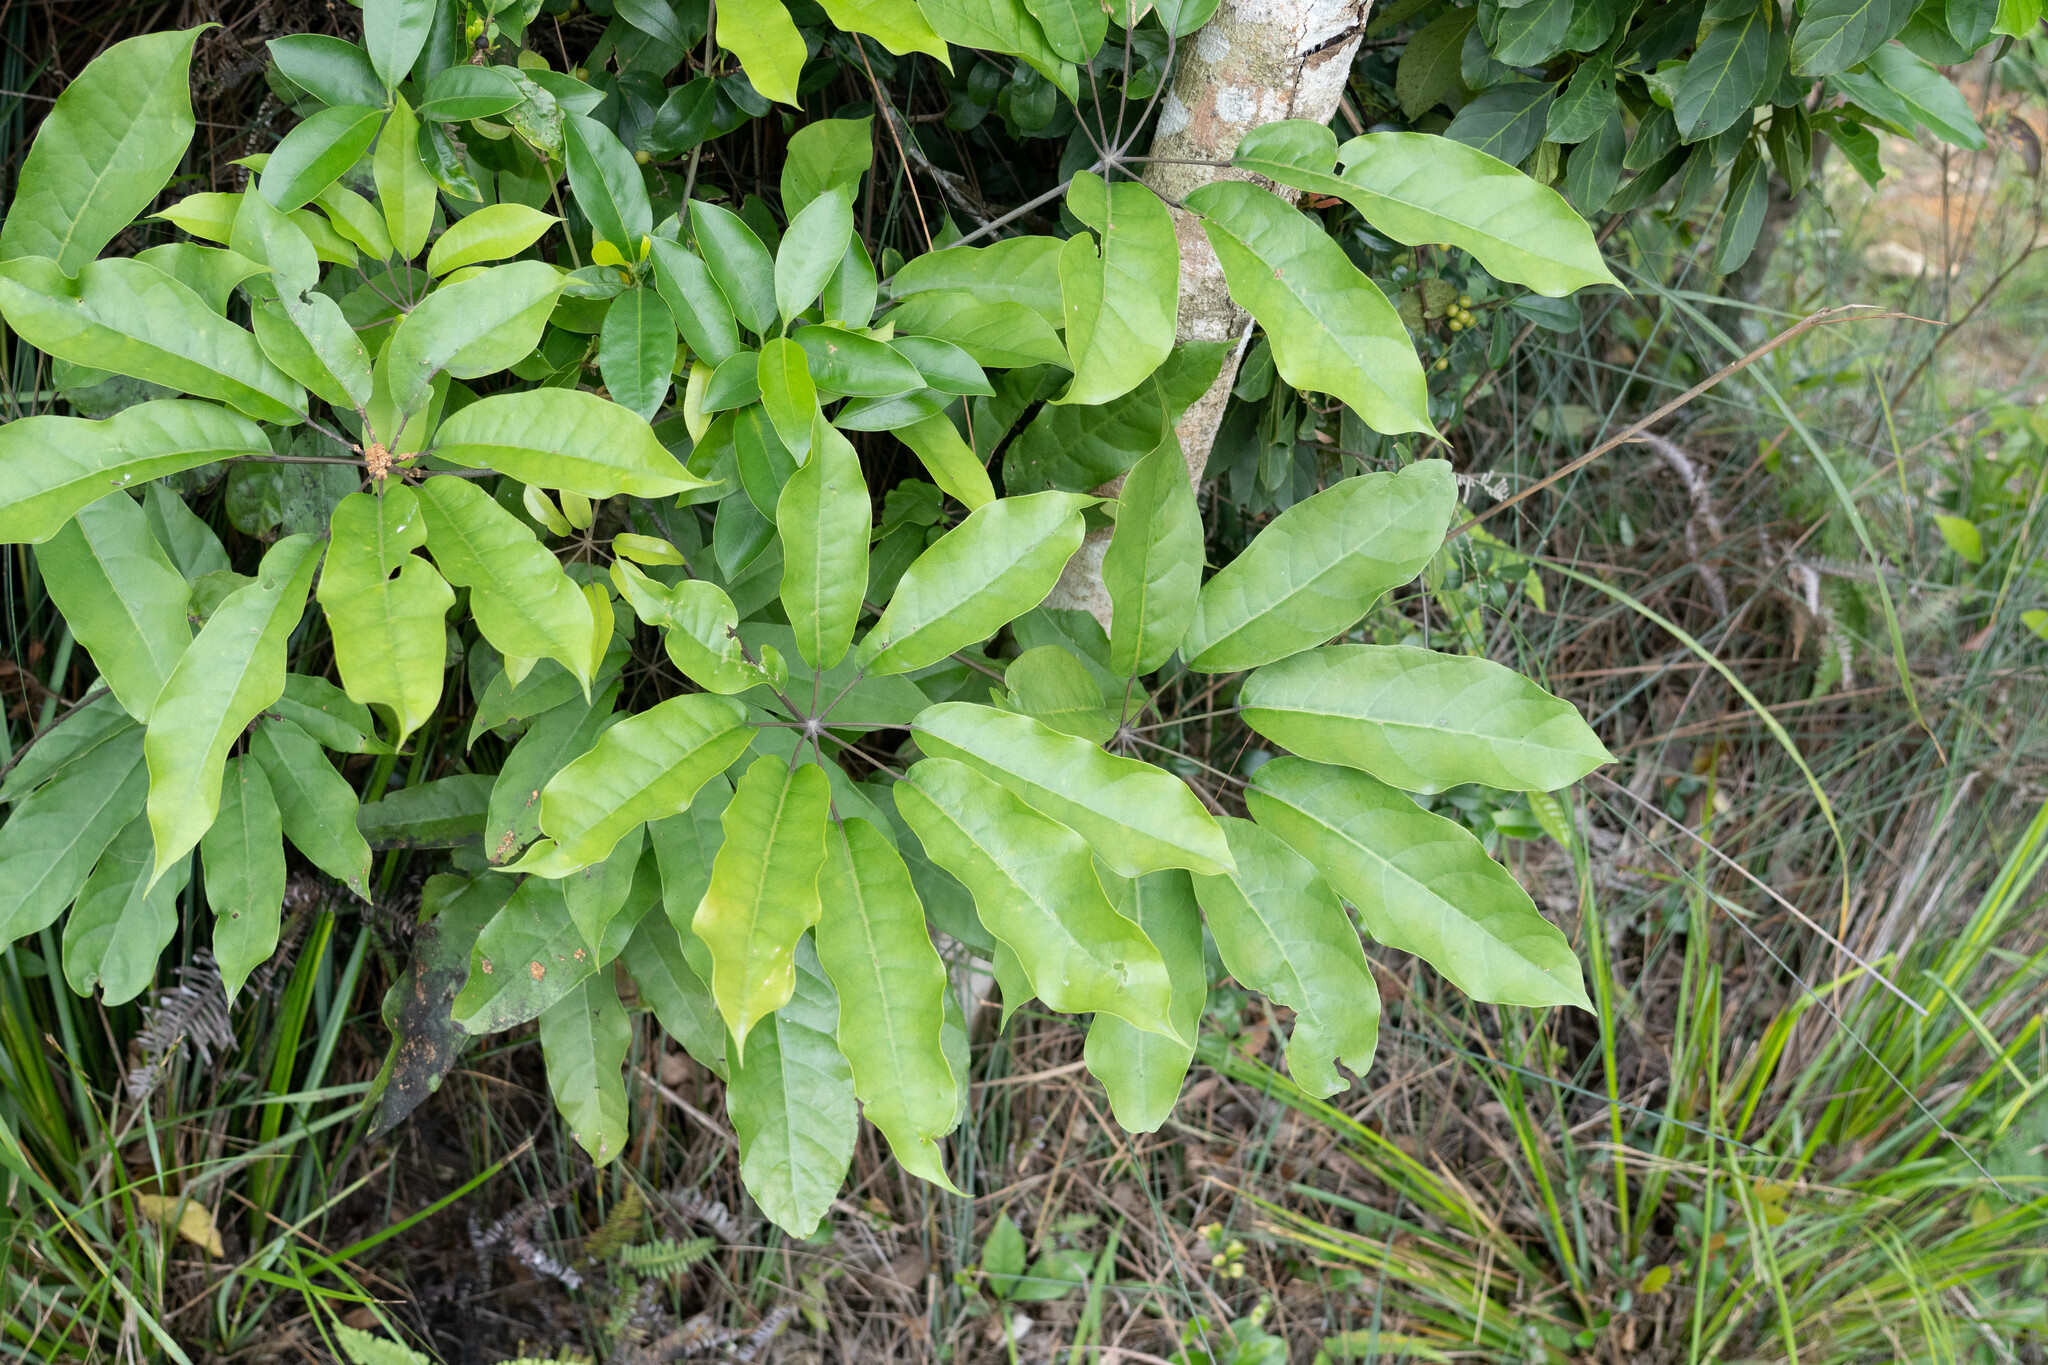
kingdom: Plantae
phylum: Tracheophyta
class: Magnoliopsida
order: Apiales
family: Araliaceae
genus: Heptapleurum
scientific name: Heptapleurum heptaphyllum
